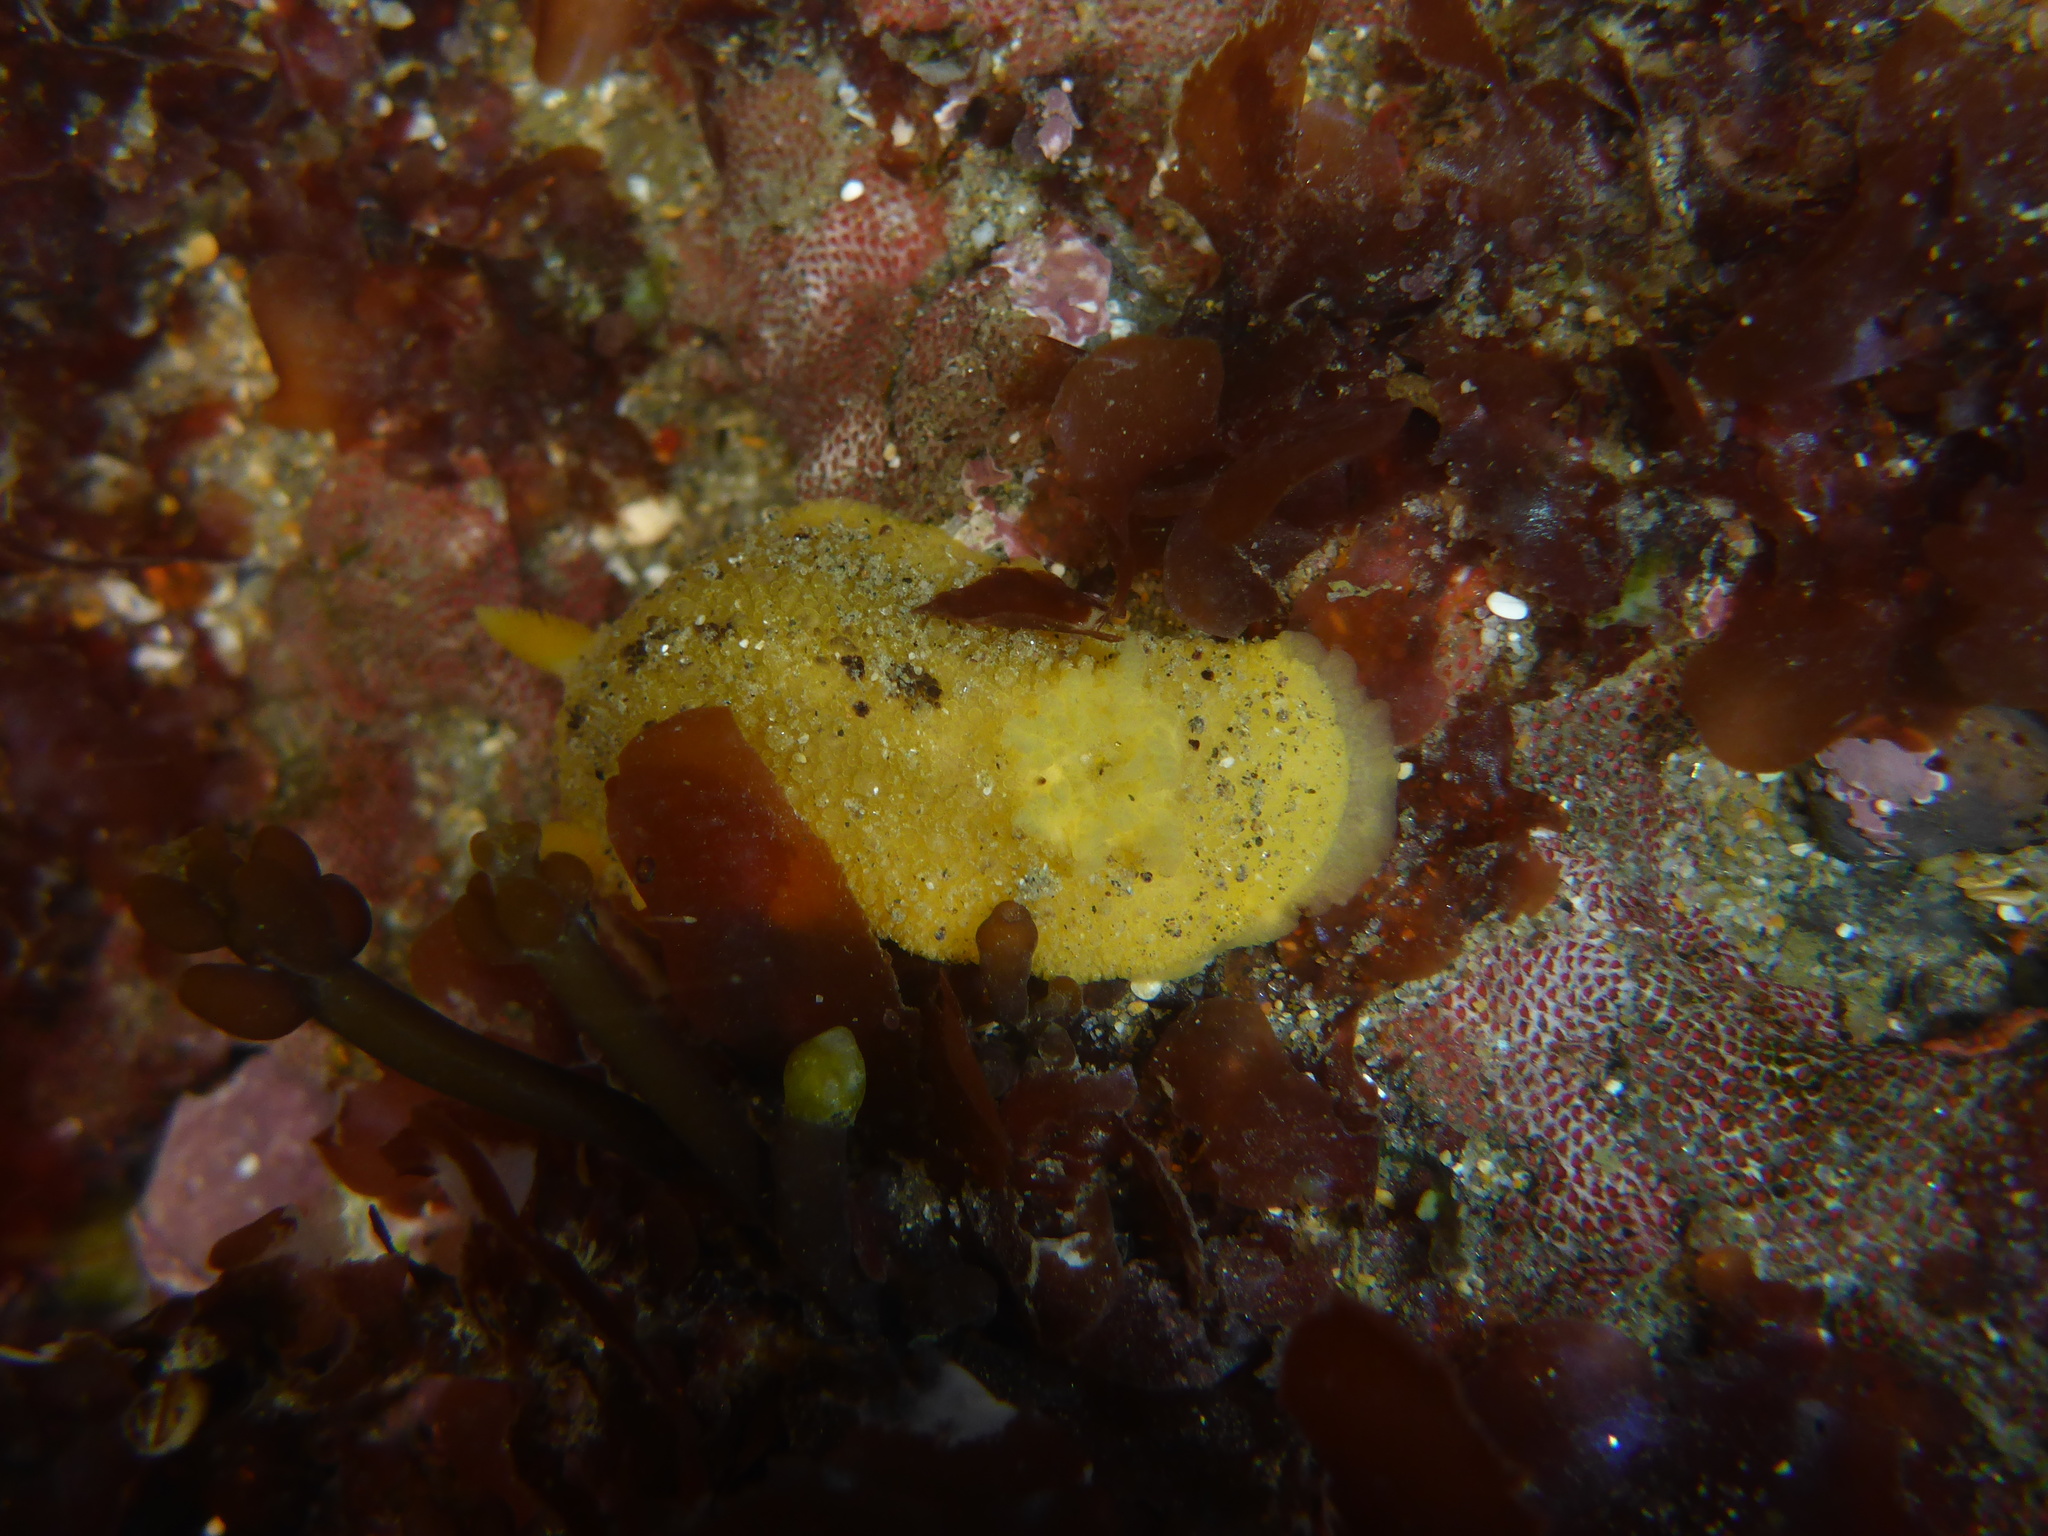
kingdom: Animalia
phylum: Mollusca
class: Gastropoda
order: Nudibranchia
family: Dorididae
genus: Doris
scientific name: Doris montereyensis
